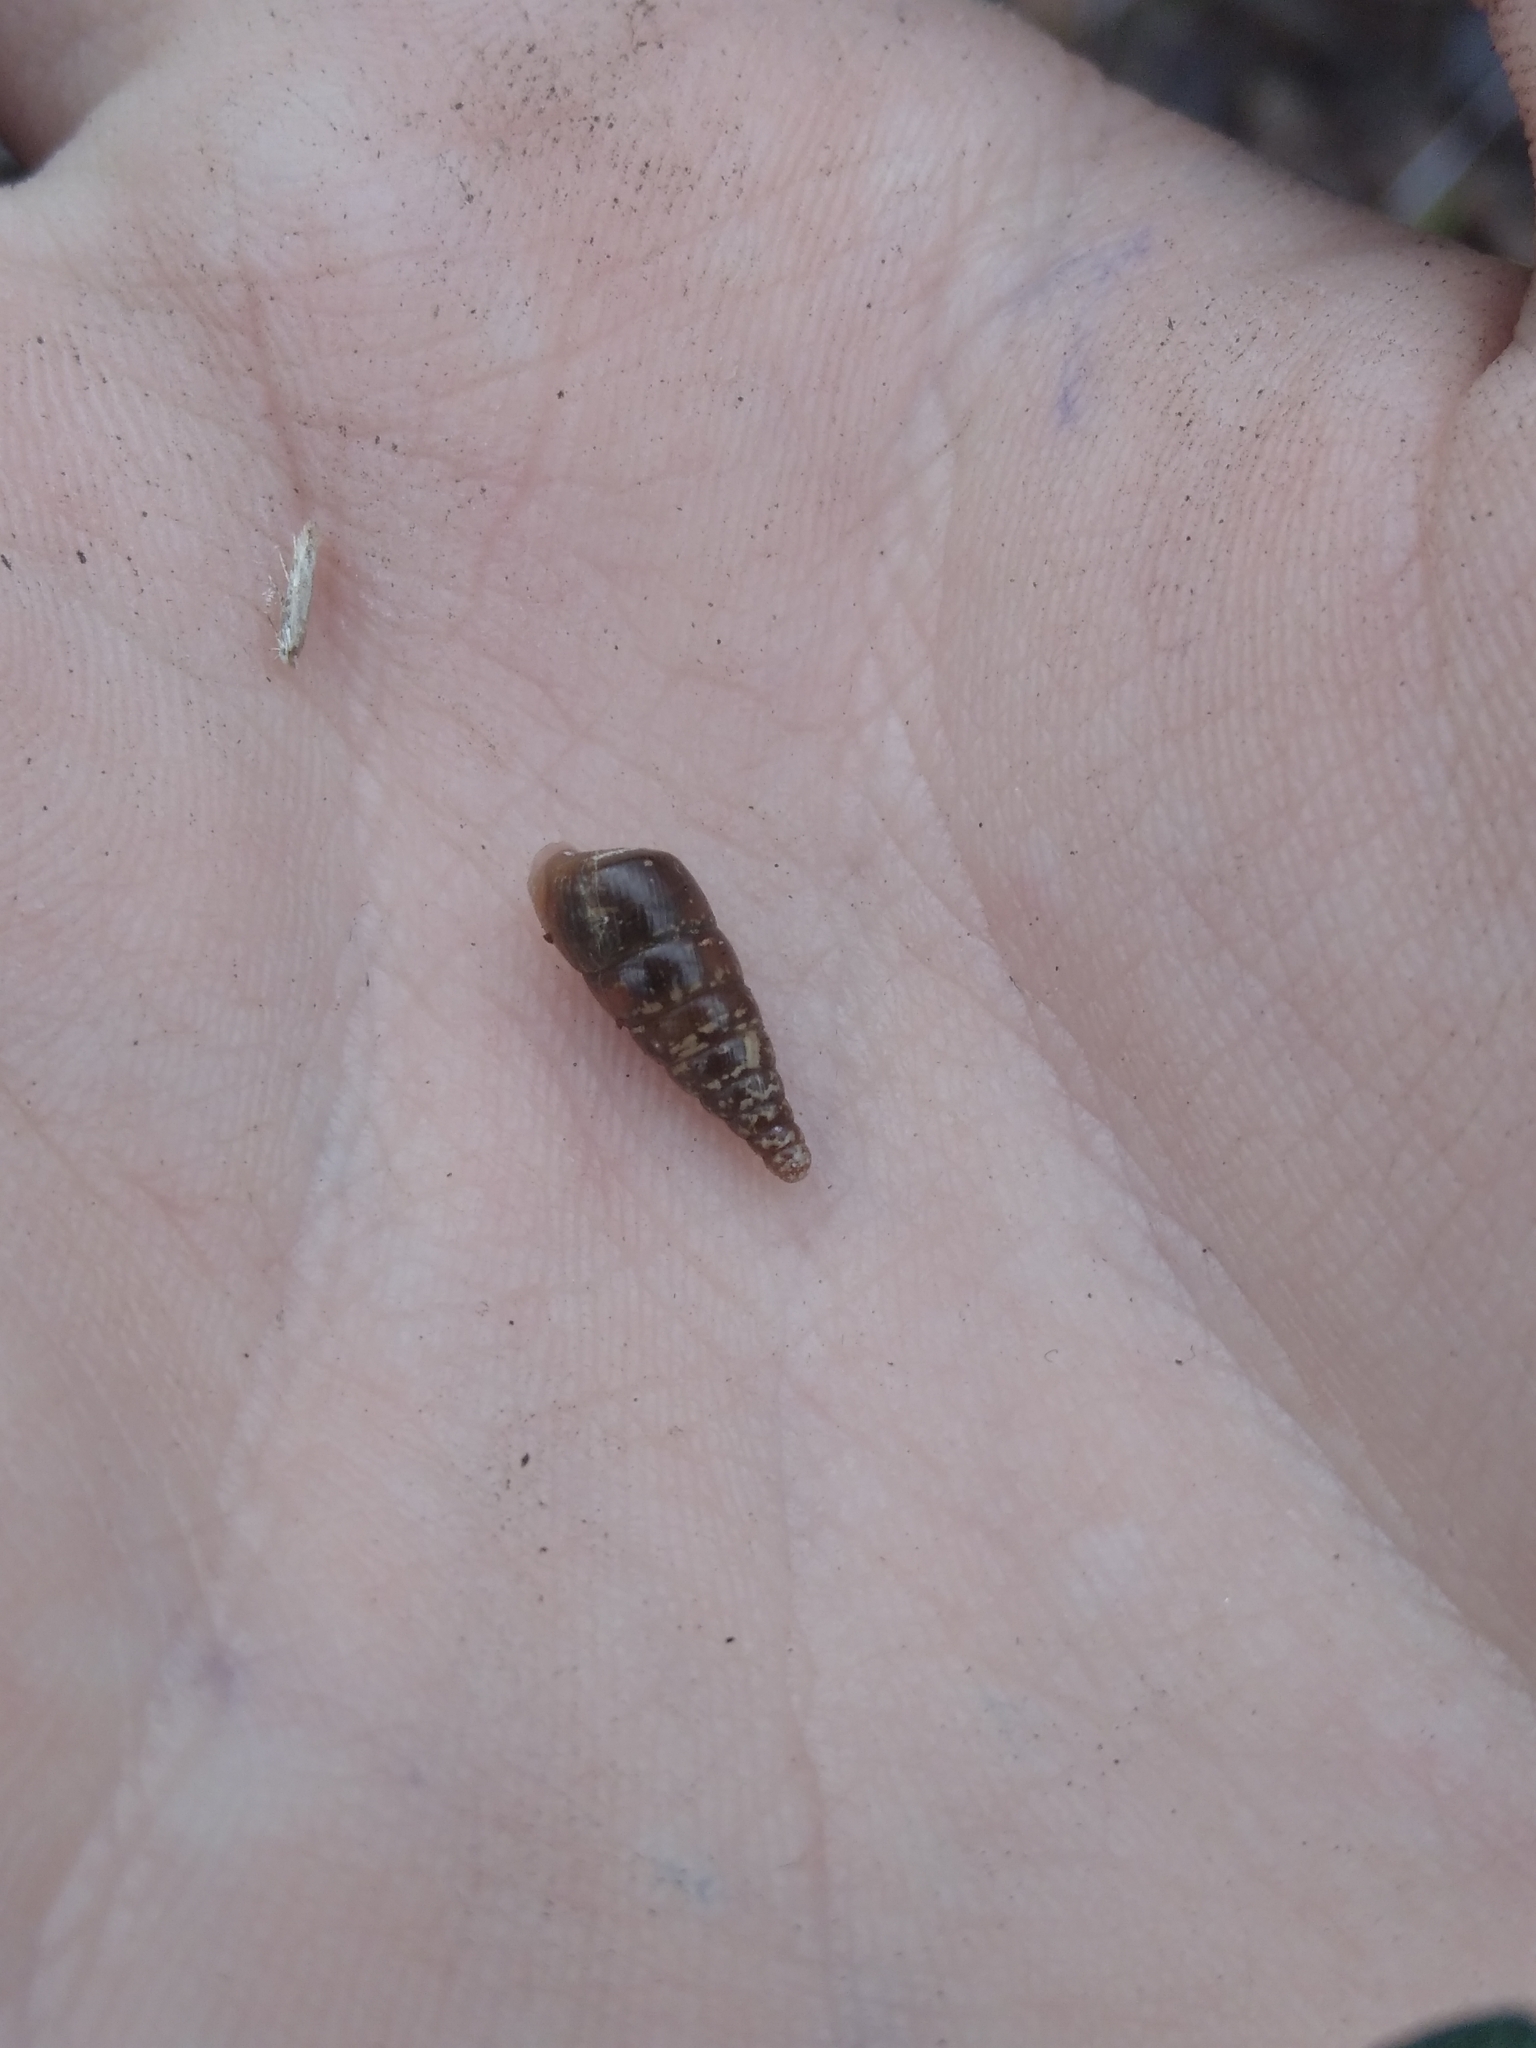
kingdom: Animalia
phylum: Mollusca
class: Gastropoda
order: Stylommatophora
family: Clausiliidae
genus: Cochlodina
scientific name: Cochlodina laminata
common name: Plaited door snail
